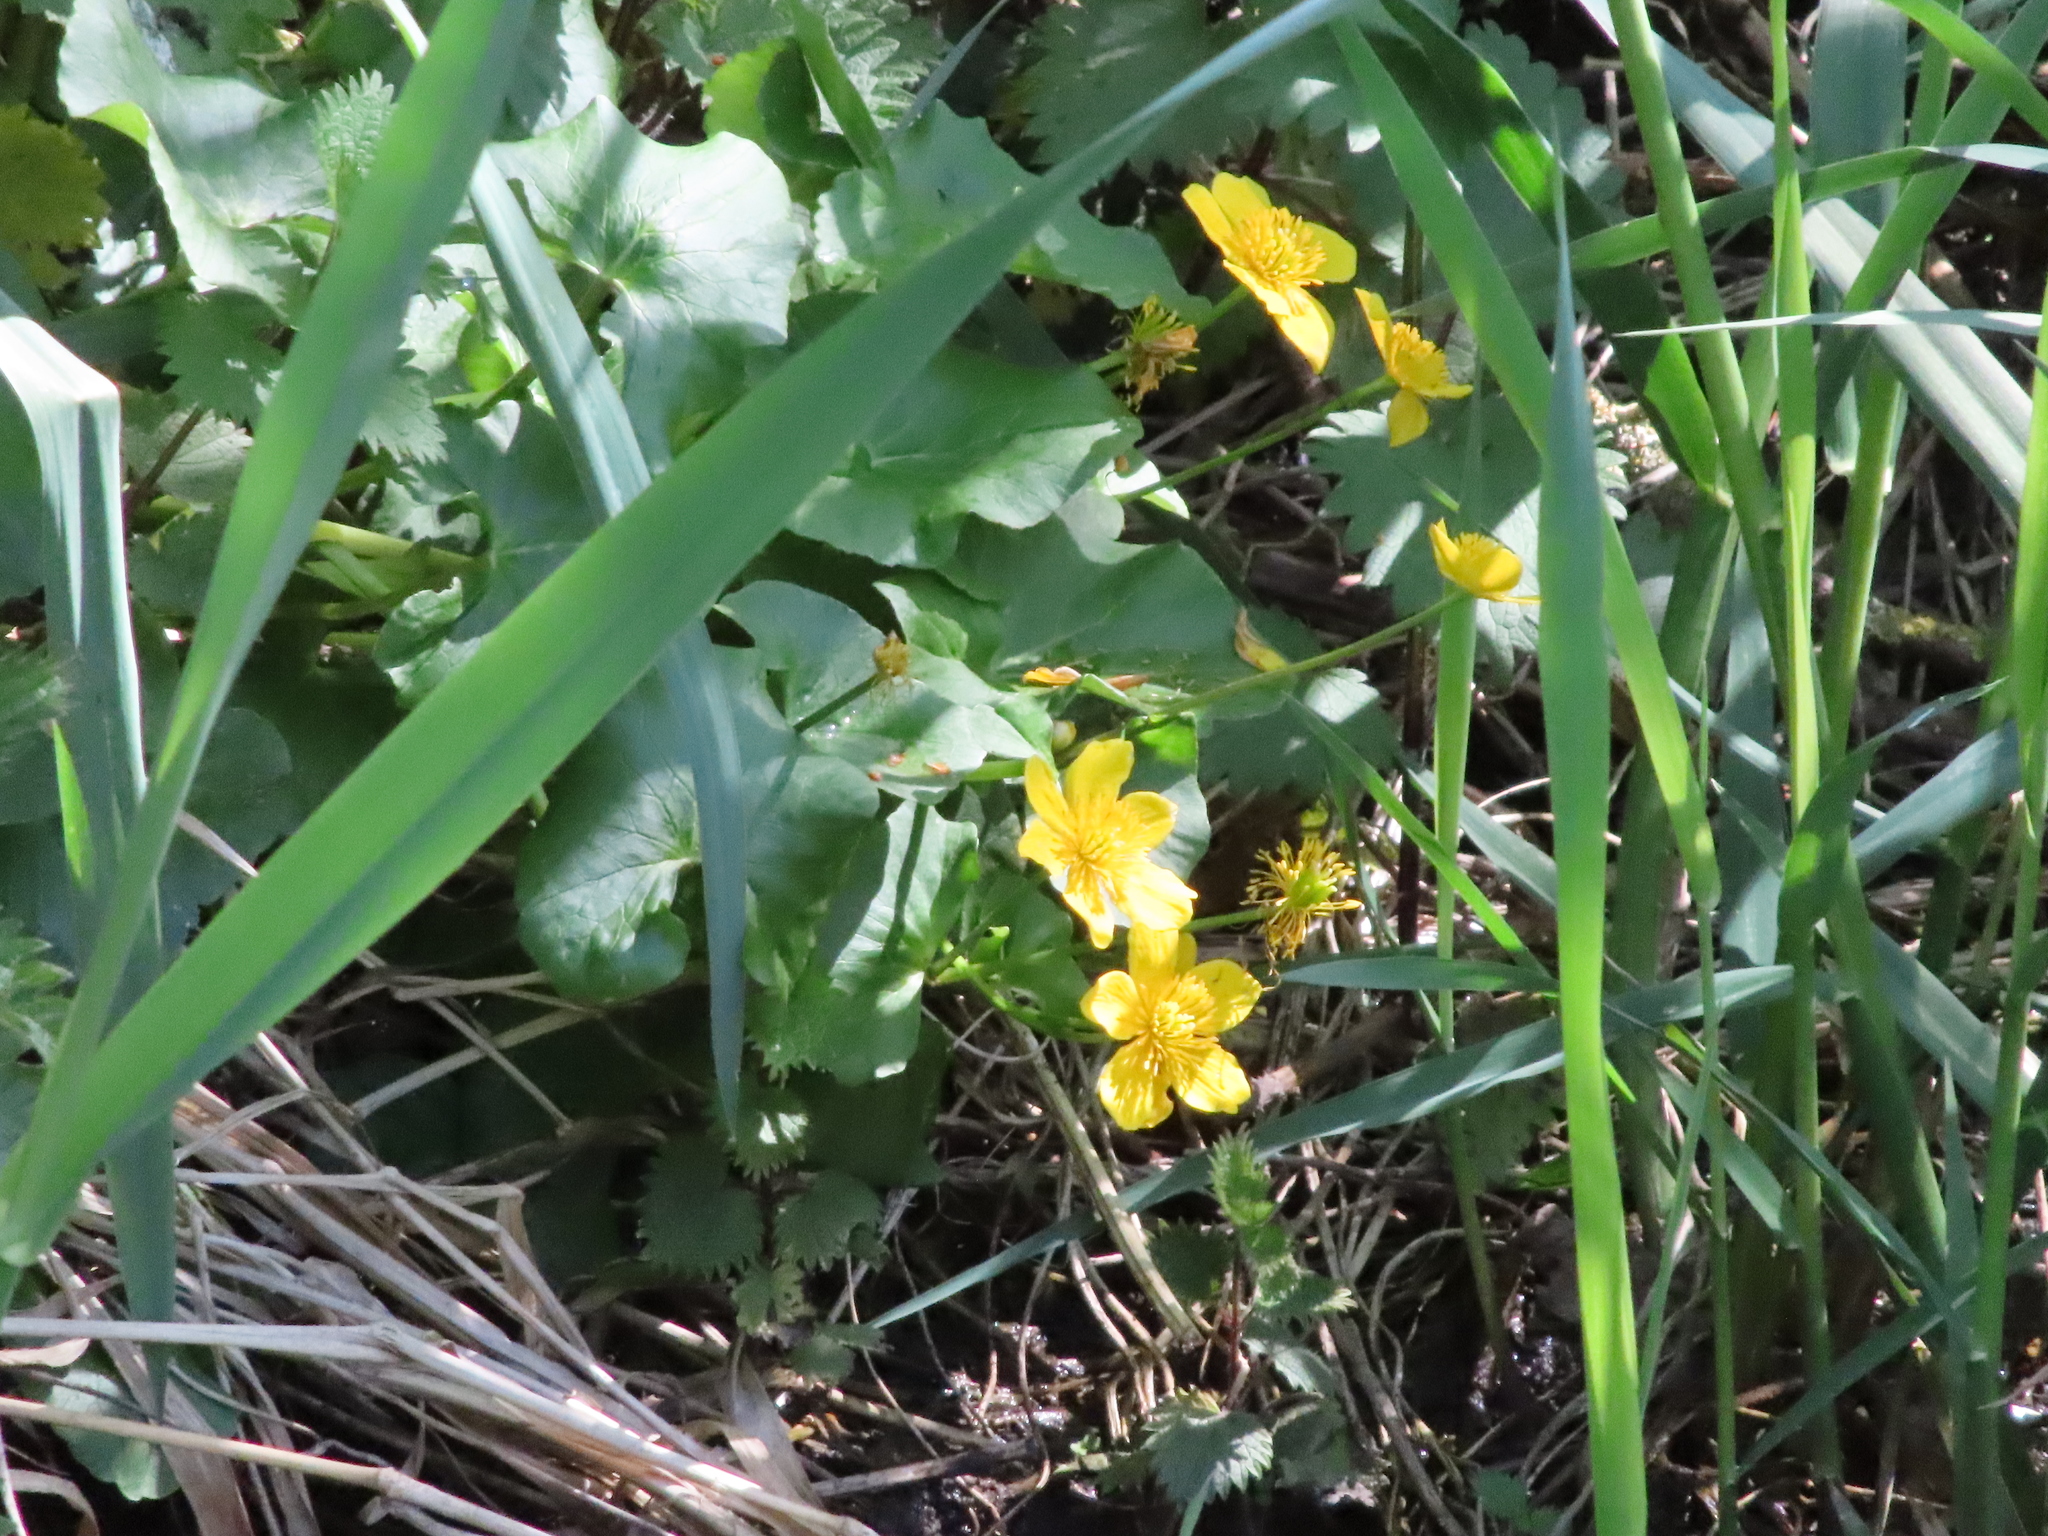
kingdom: Plantae
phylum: Tracheophyta
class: Magnoliopsida
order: Ranunculales
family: Ranunculaceae
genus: Caltha
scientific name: Caltha palustris
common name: Marsh marigold
